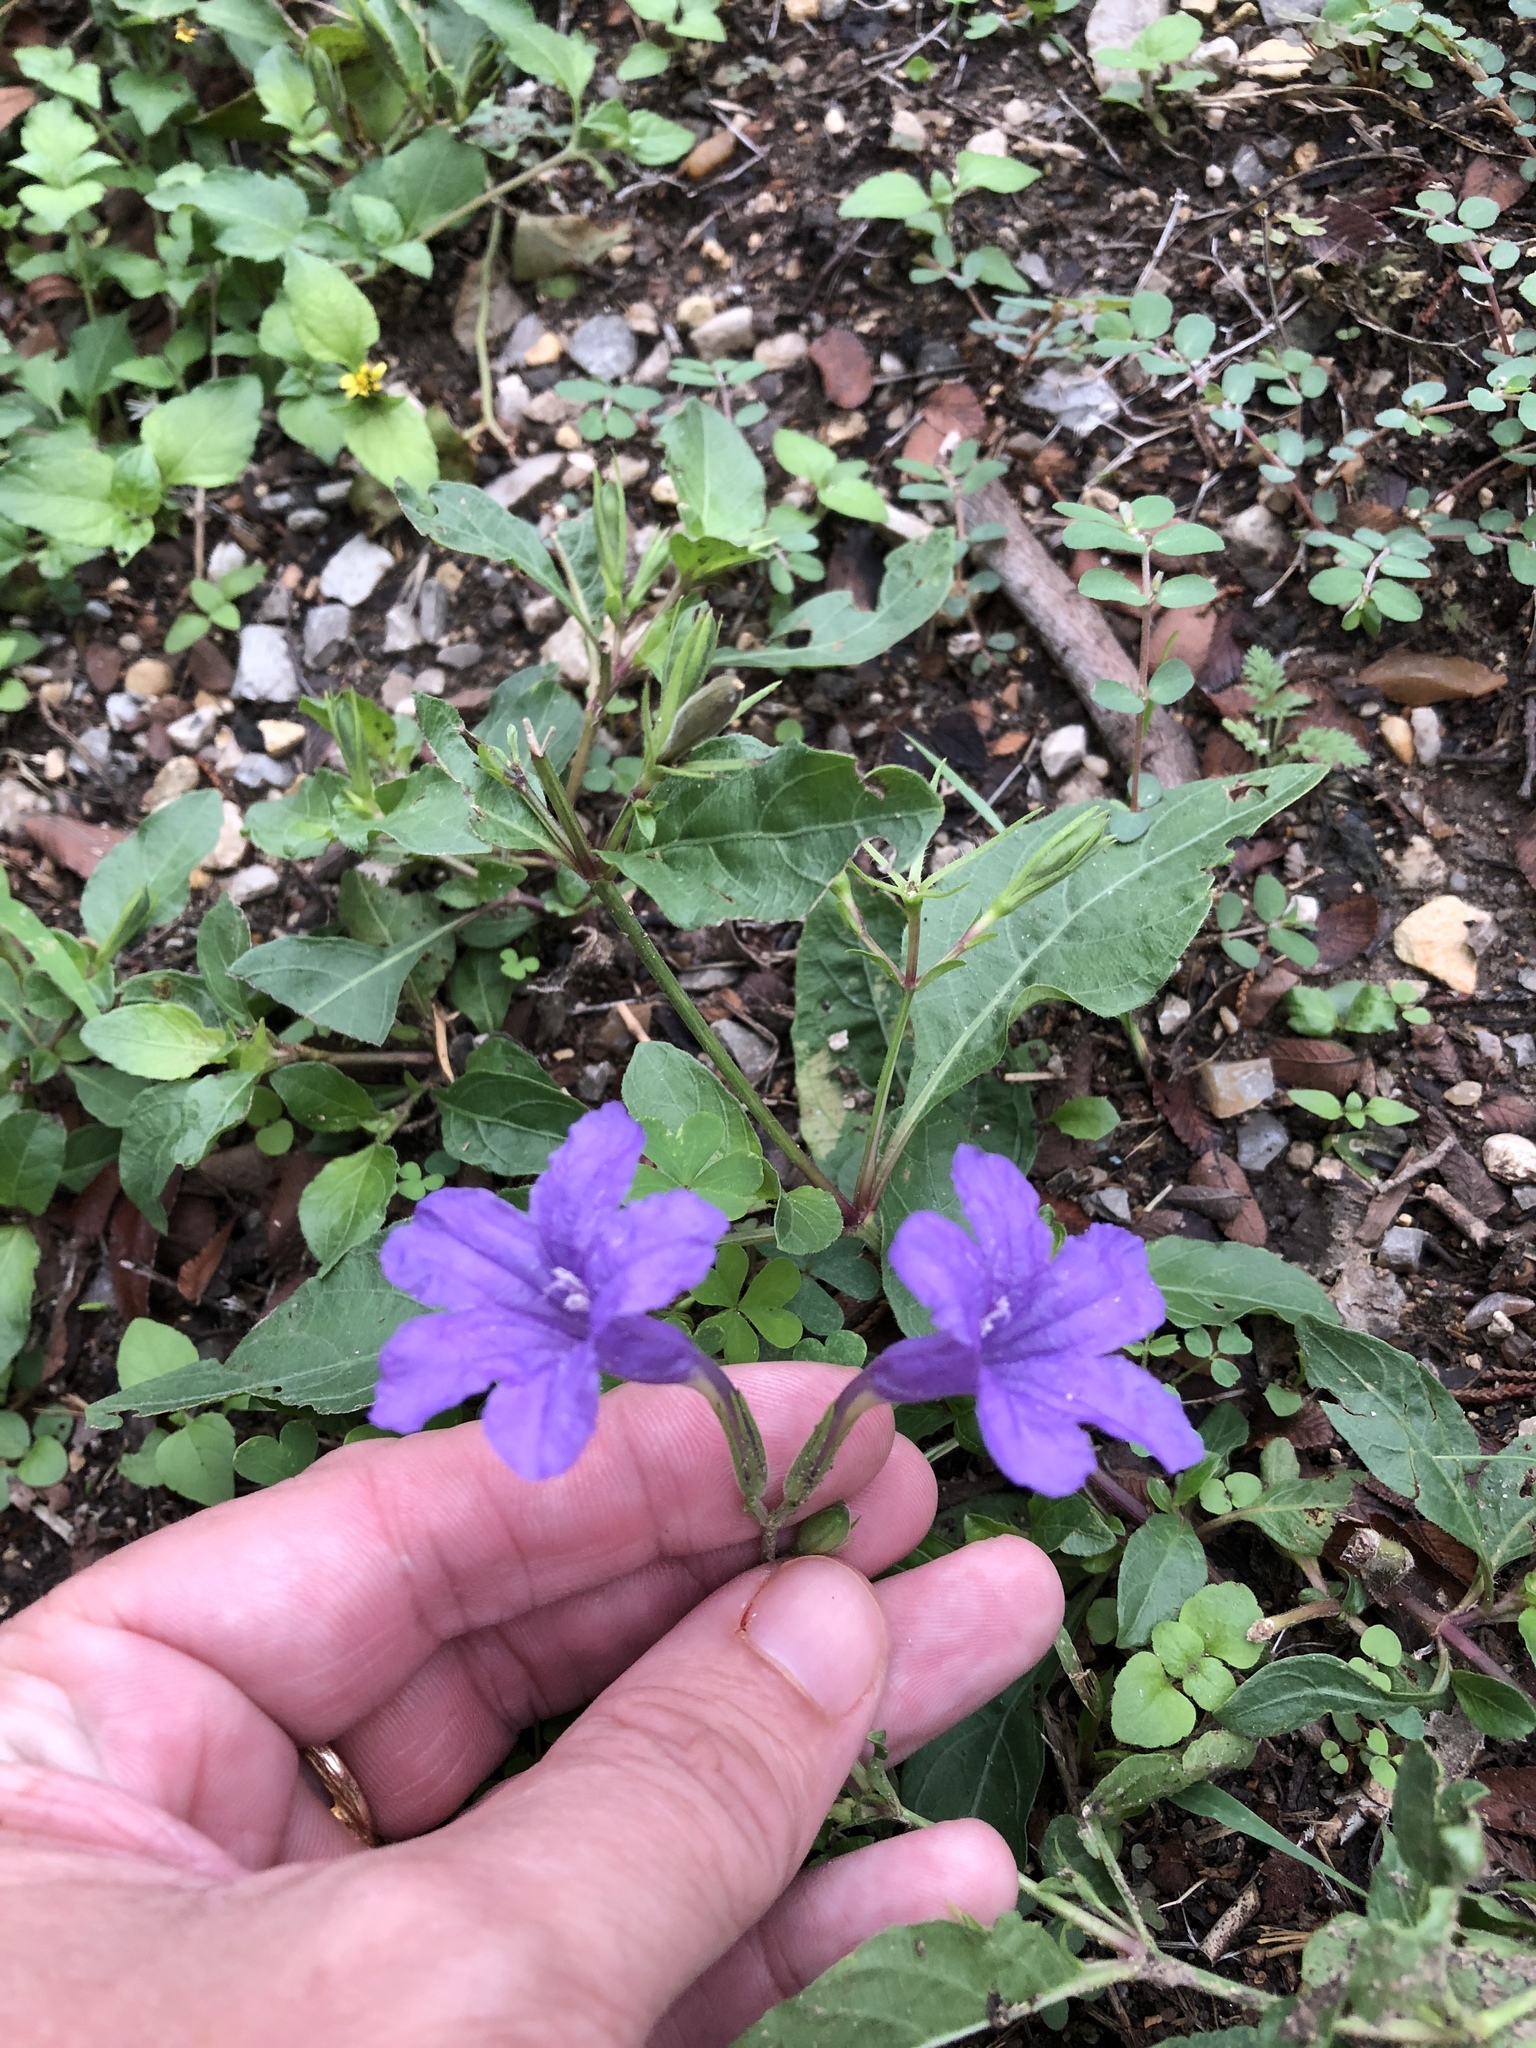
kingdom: Plantae
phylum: Tracheophyta
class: Magnoliopsida
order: Lamiales
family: Acanthaceae
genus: Ruellia
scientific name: Ruellia ciliatiflora
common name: Hairyflower wild petunia
